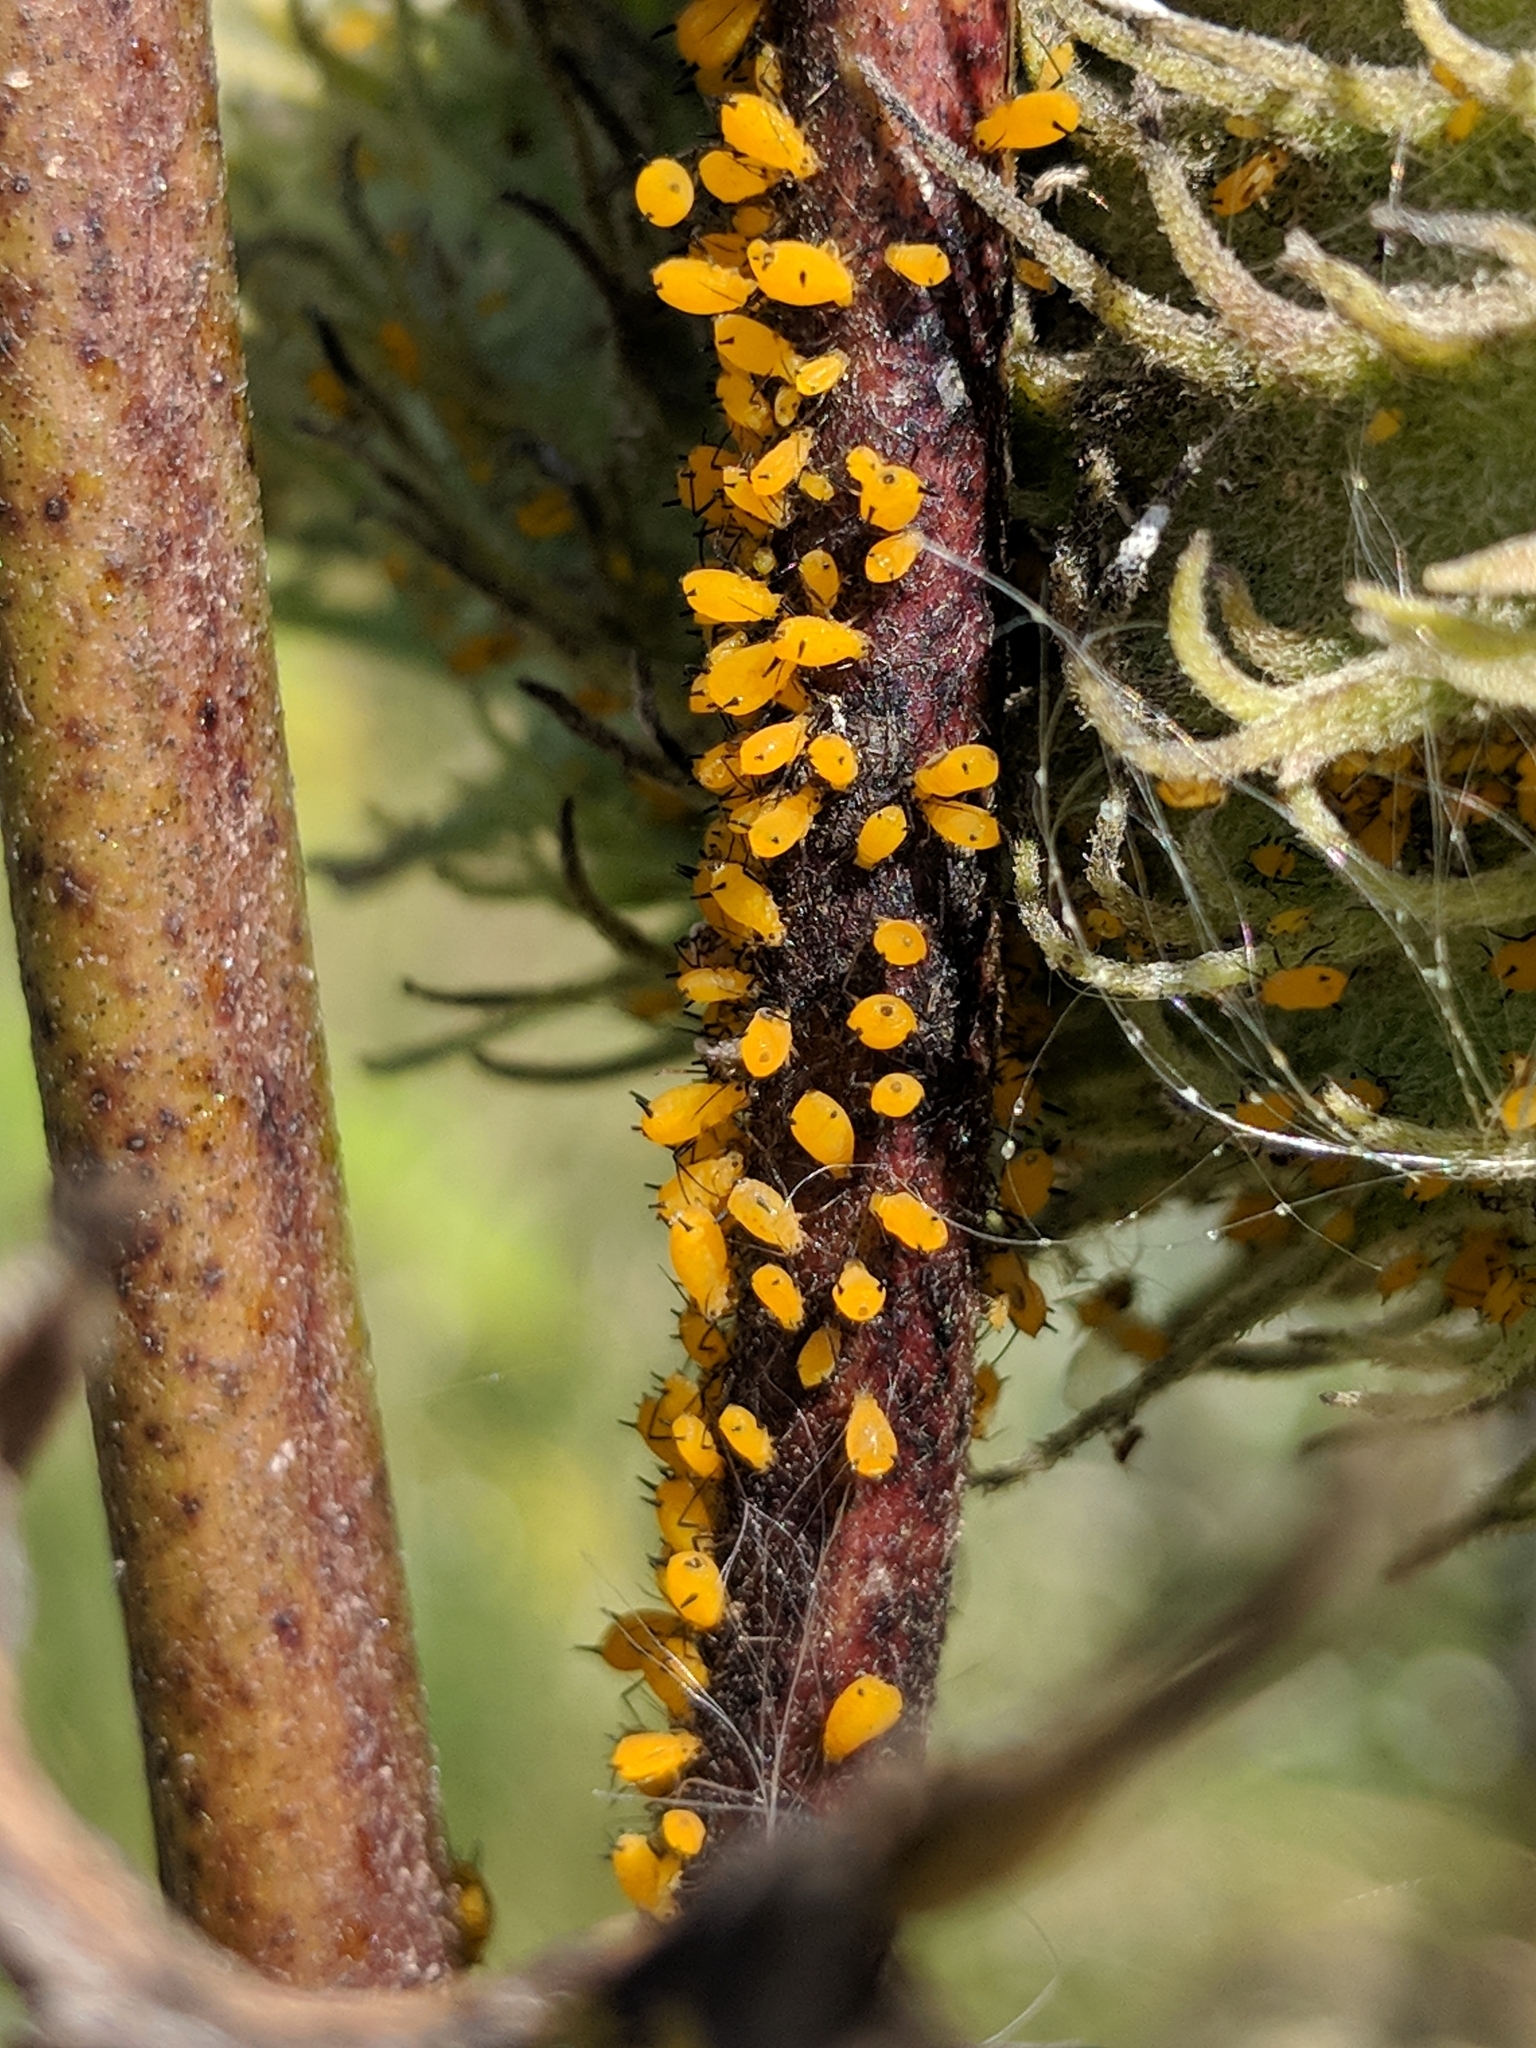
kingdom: Animalia
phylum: Arthropoda
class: Insecta
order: Hemiptera
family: Aphididae
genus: Aphis
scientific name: Aphis nerii
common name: Oleander aphid
